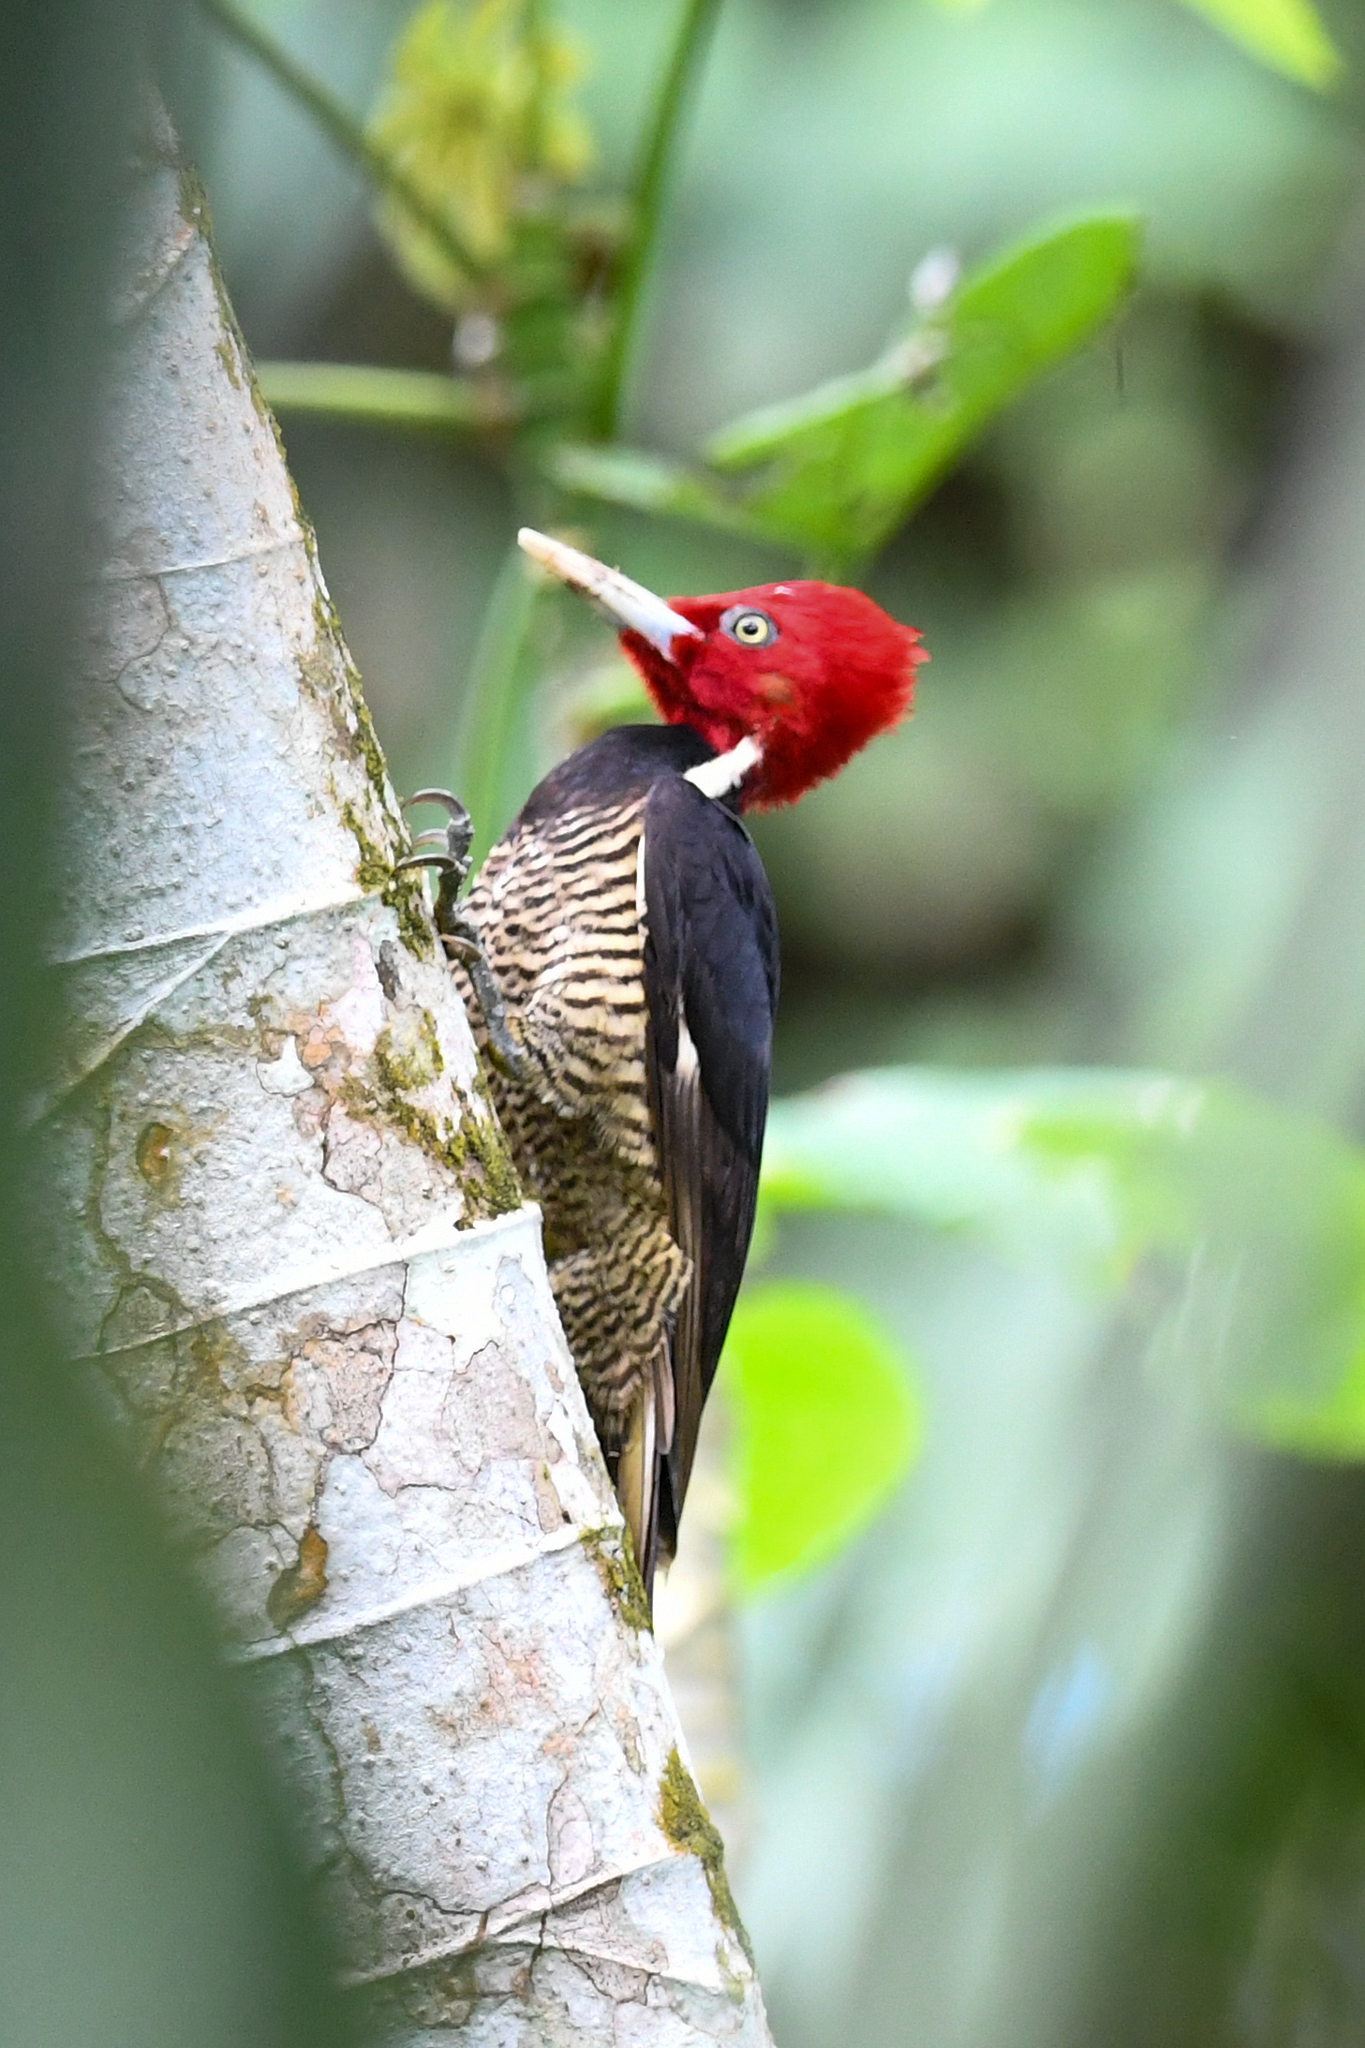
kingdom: Animalia
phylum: Chordata
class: Aves
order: Piciformes
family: Picidae
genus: Campephilus
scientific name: Campephilus guatemalensis
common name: Pale-billed woodpecker
